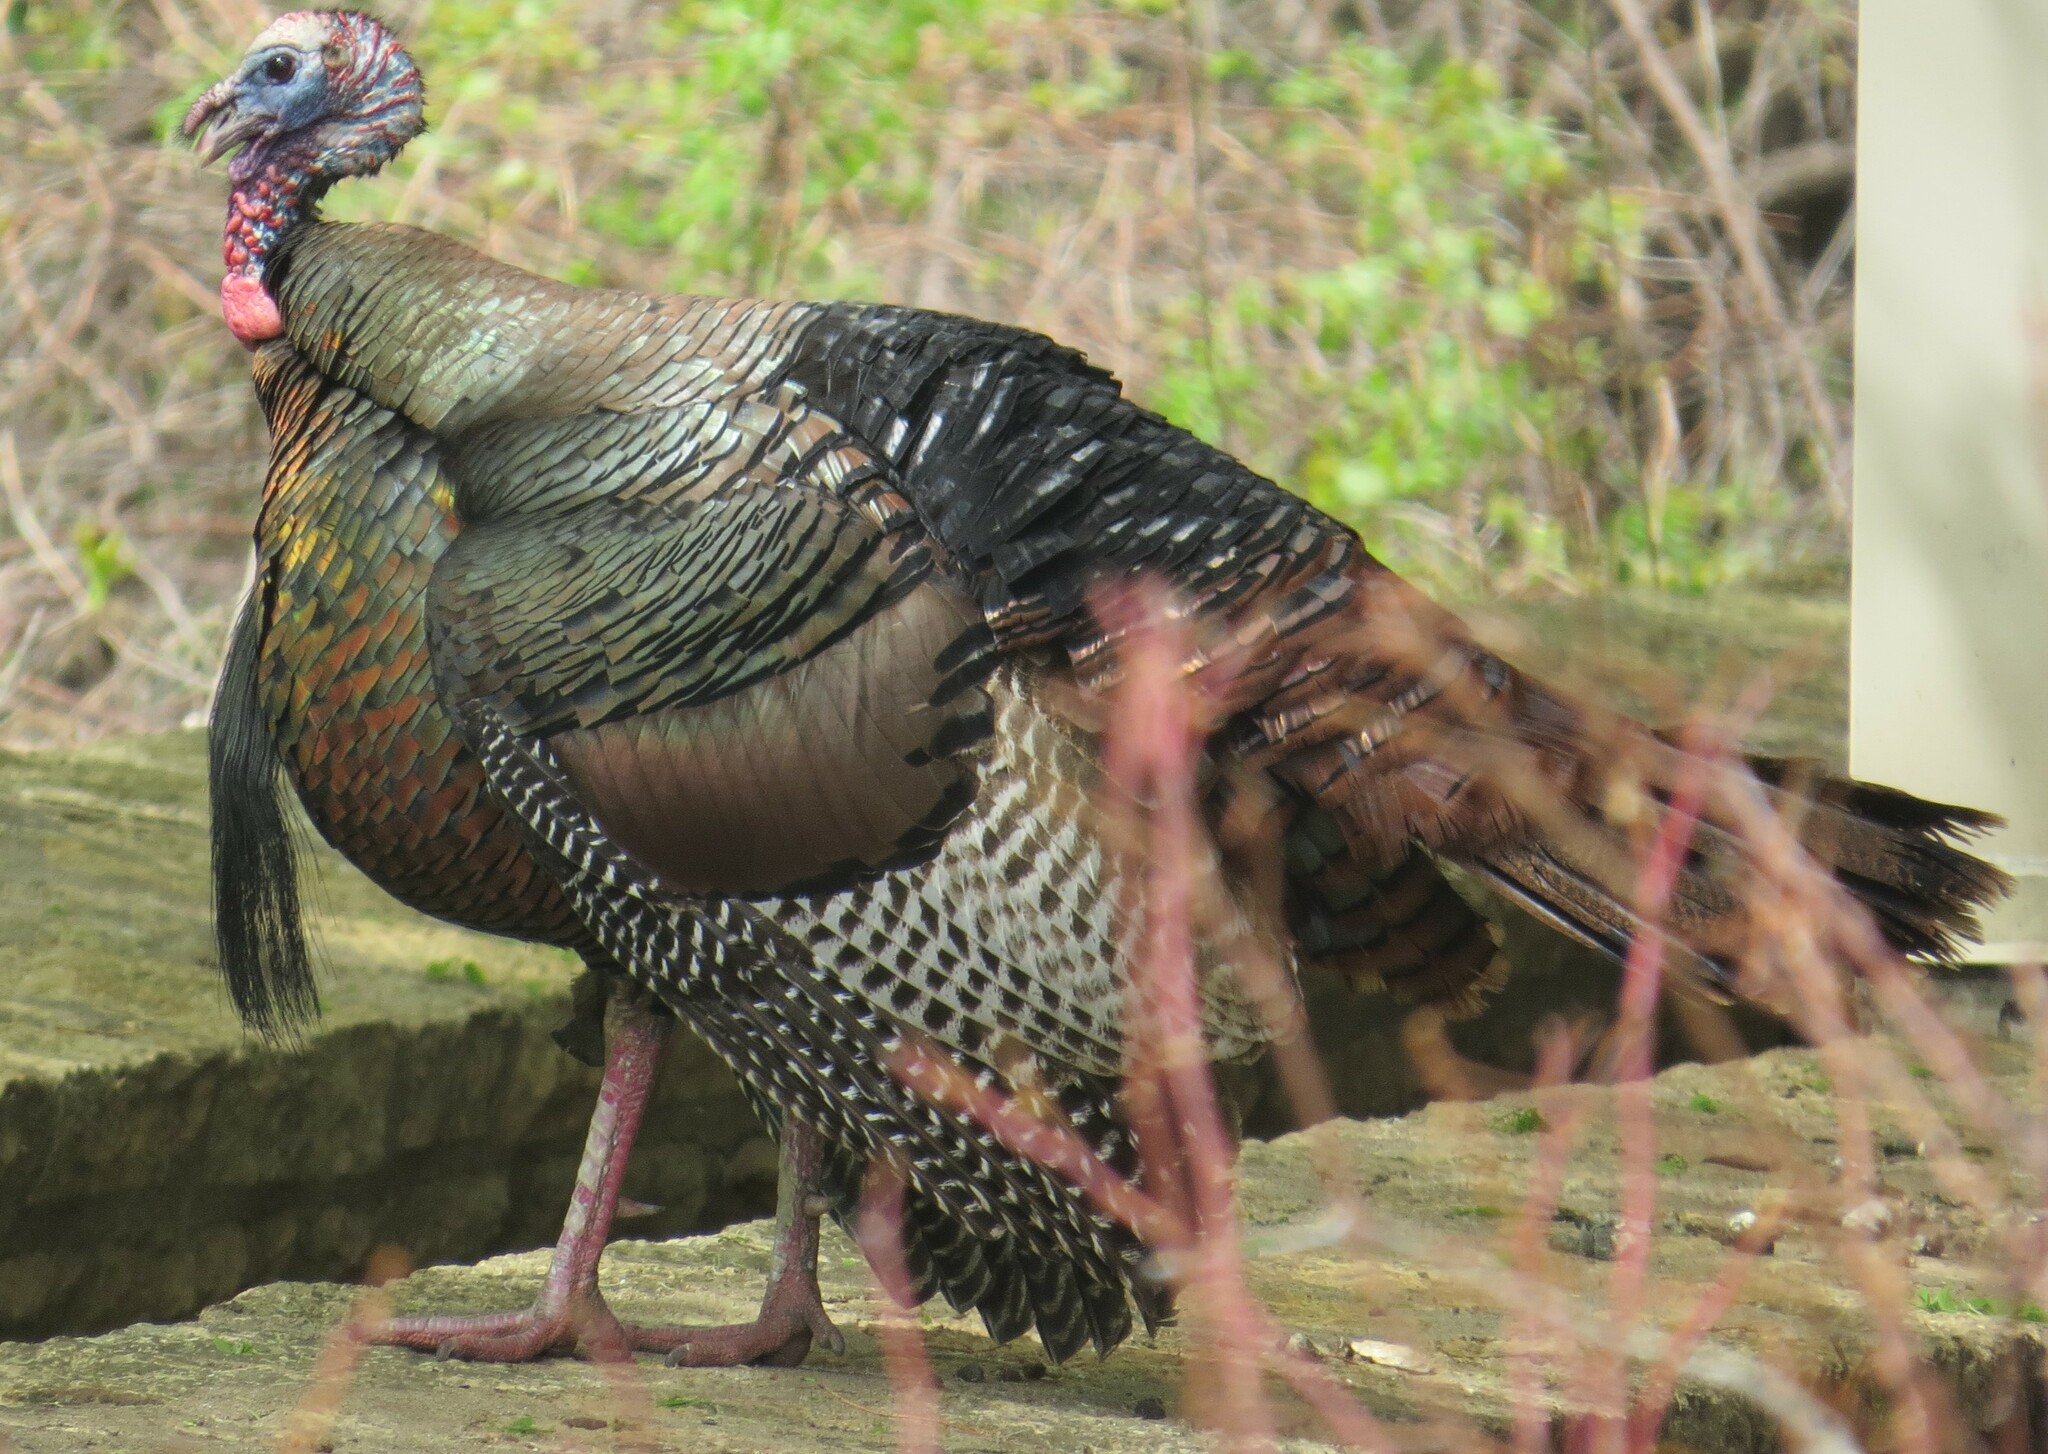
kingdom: Animalia
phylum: Chordata
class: Aves
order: Galliformes
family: Phasianidae
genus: Meleagris
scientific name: Meleagris gallopavo
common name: Wild turkey
